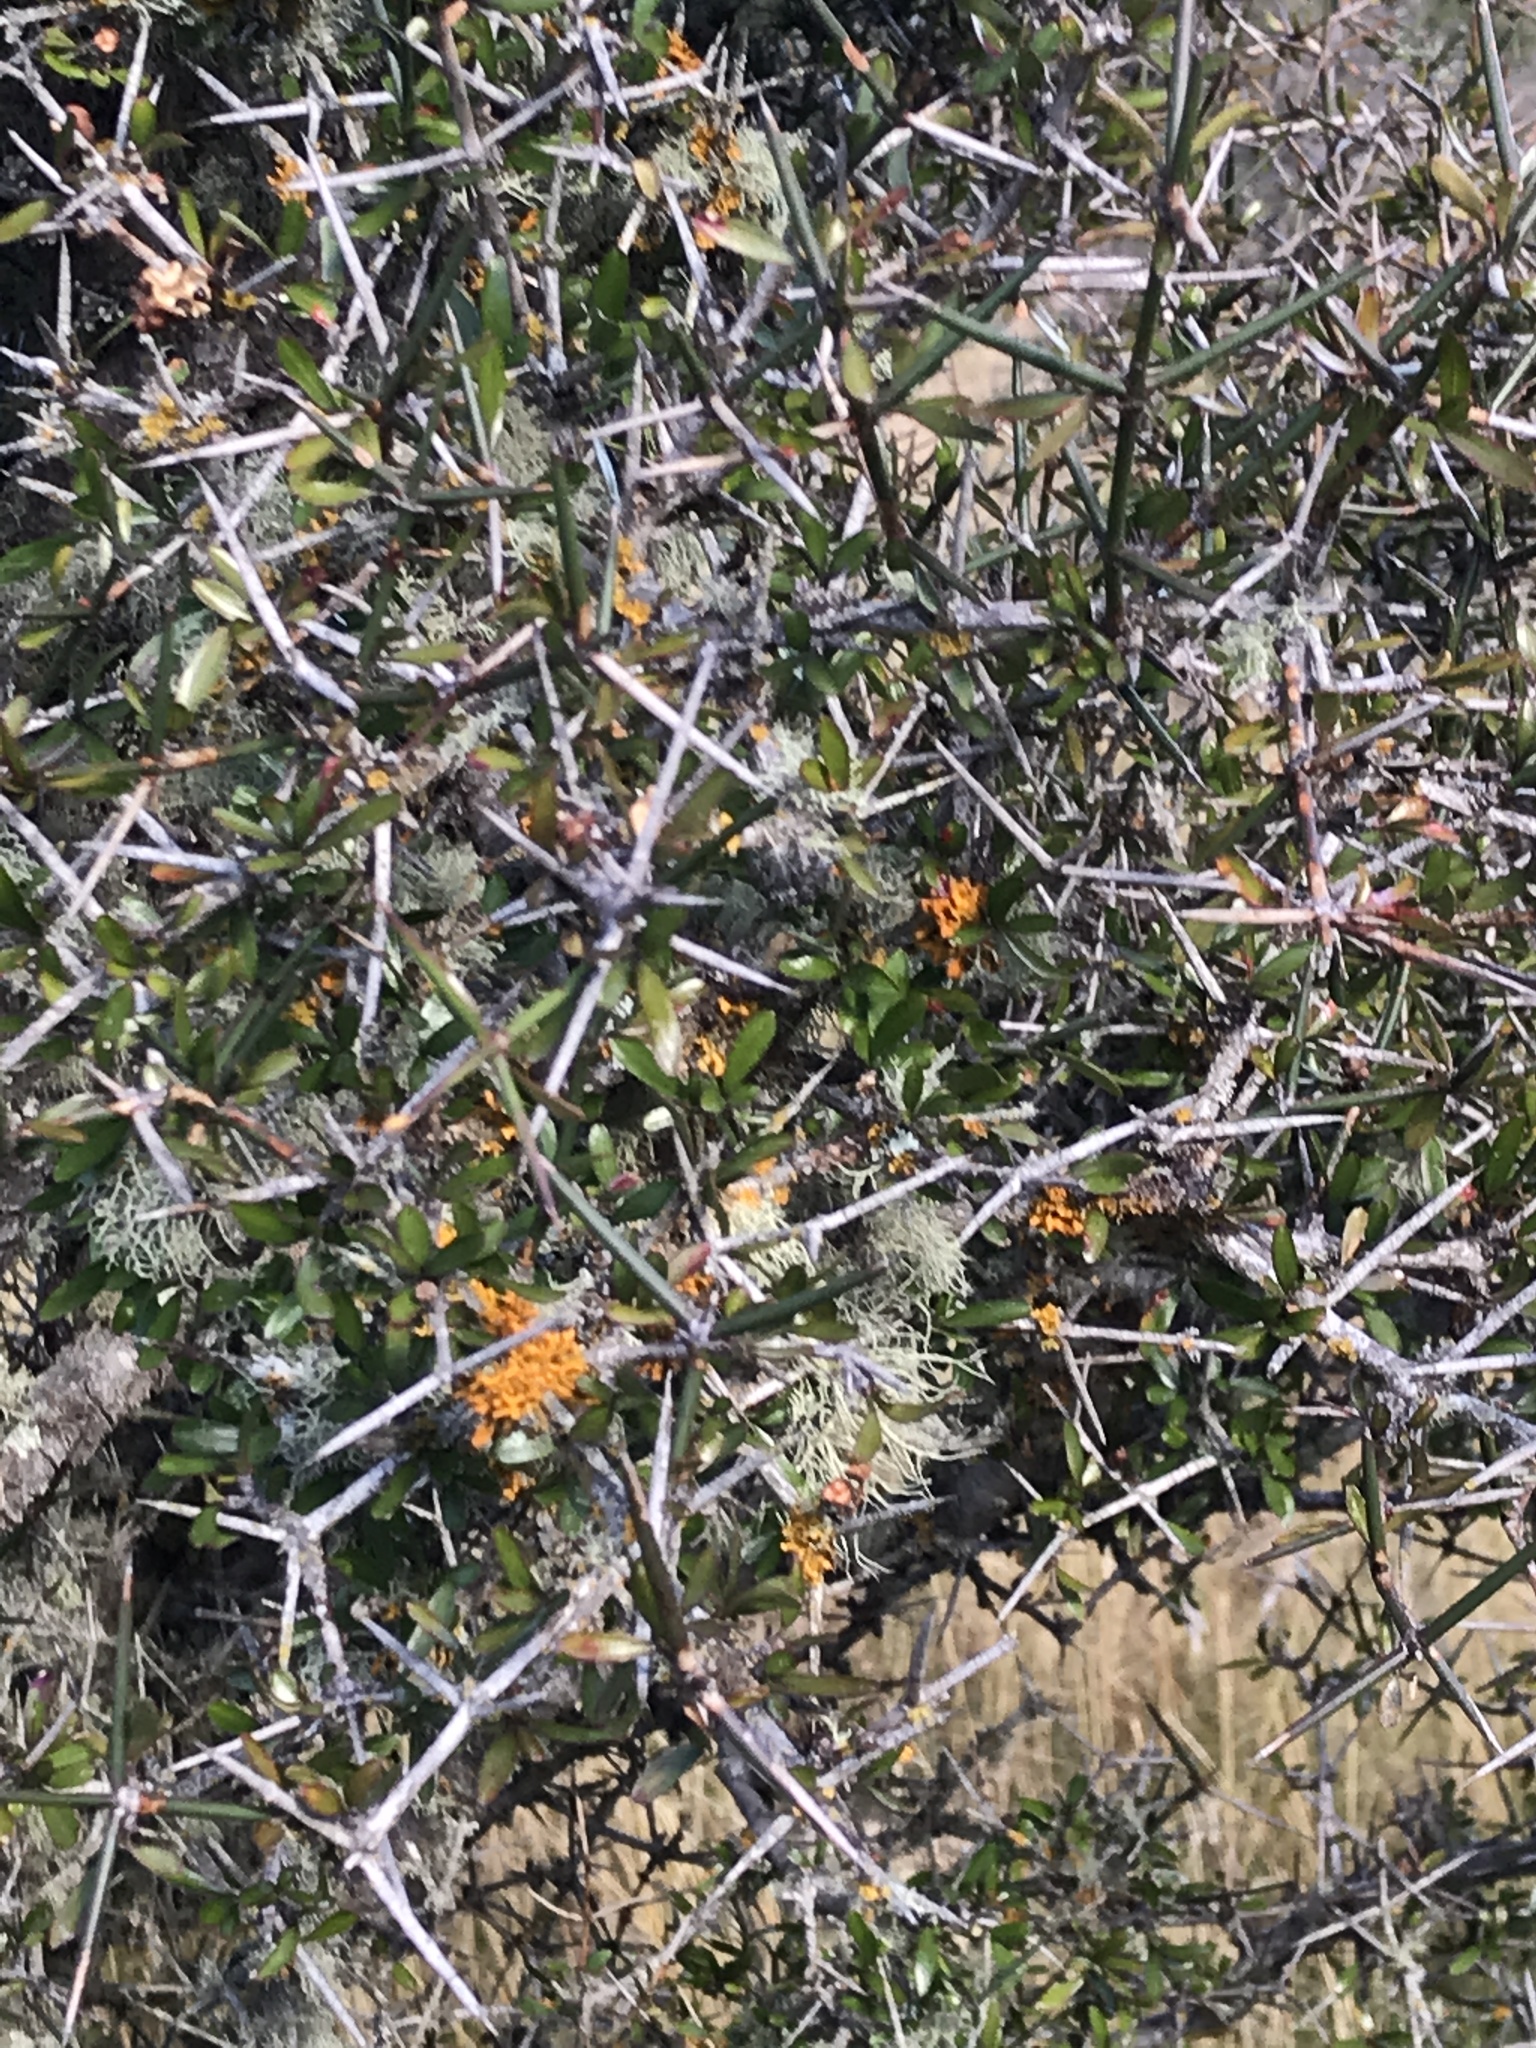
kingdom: Plantae
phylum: Tracheophyta
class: Magnoliopsida
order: Rosales
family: Rhamnaceae
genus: Discaria
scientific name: Discaria toumatou
